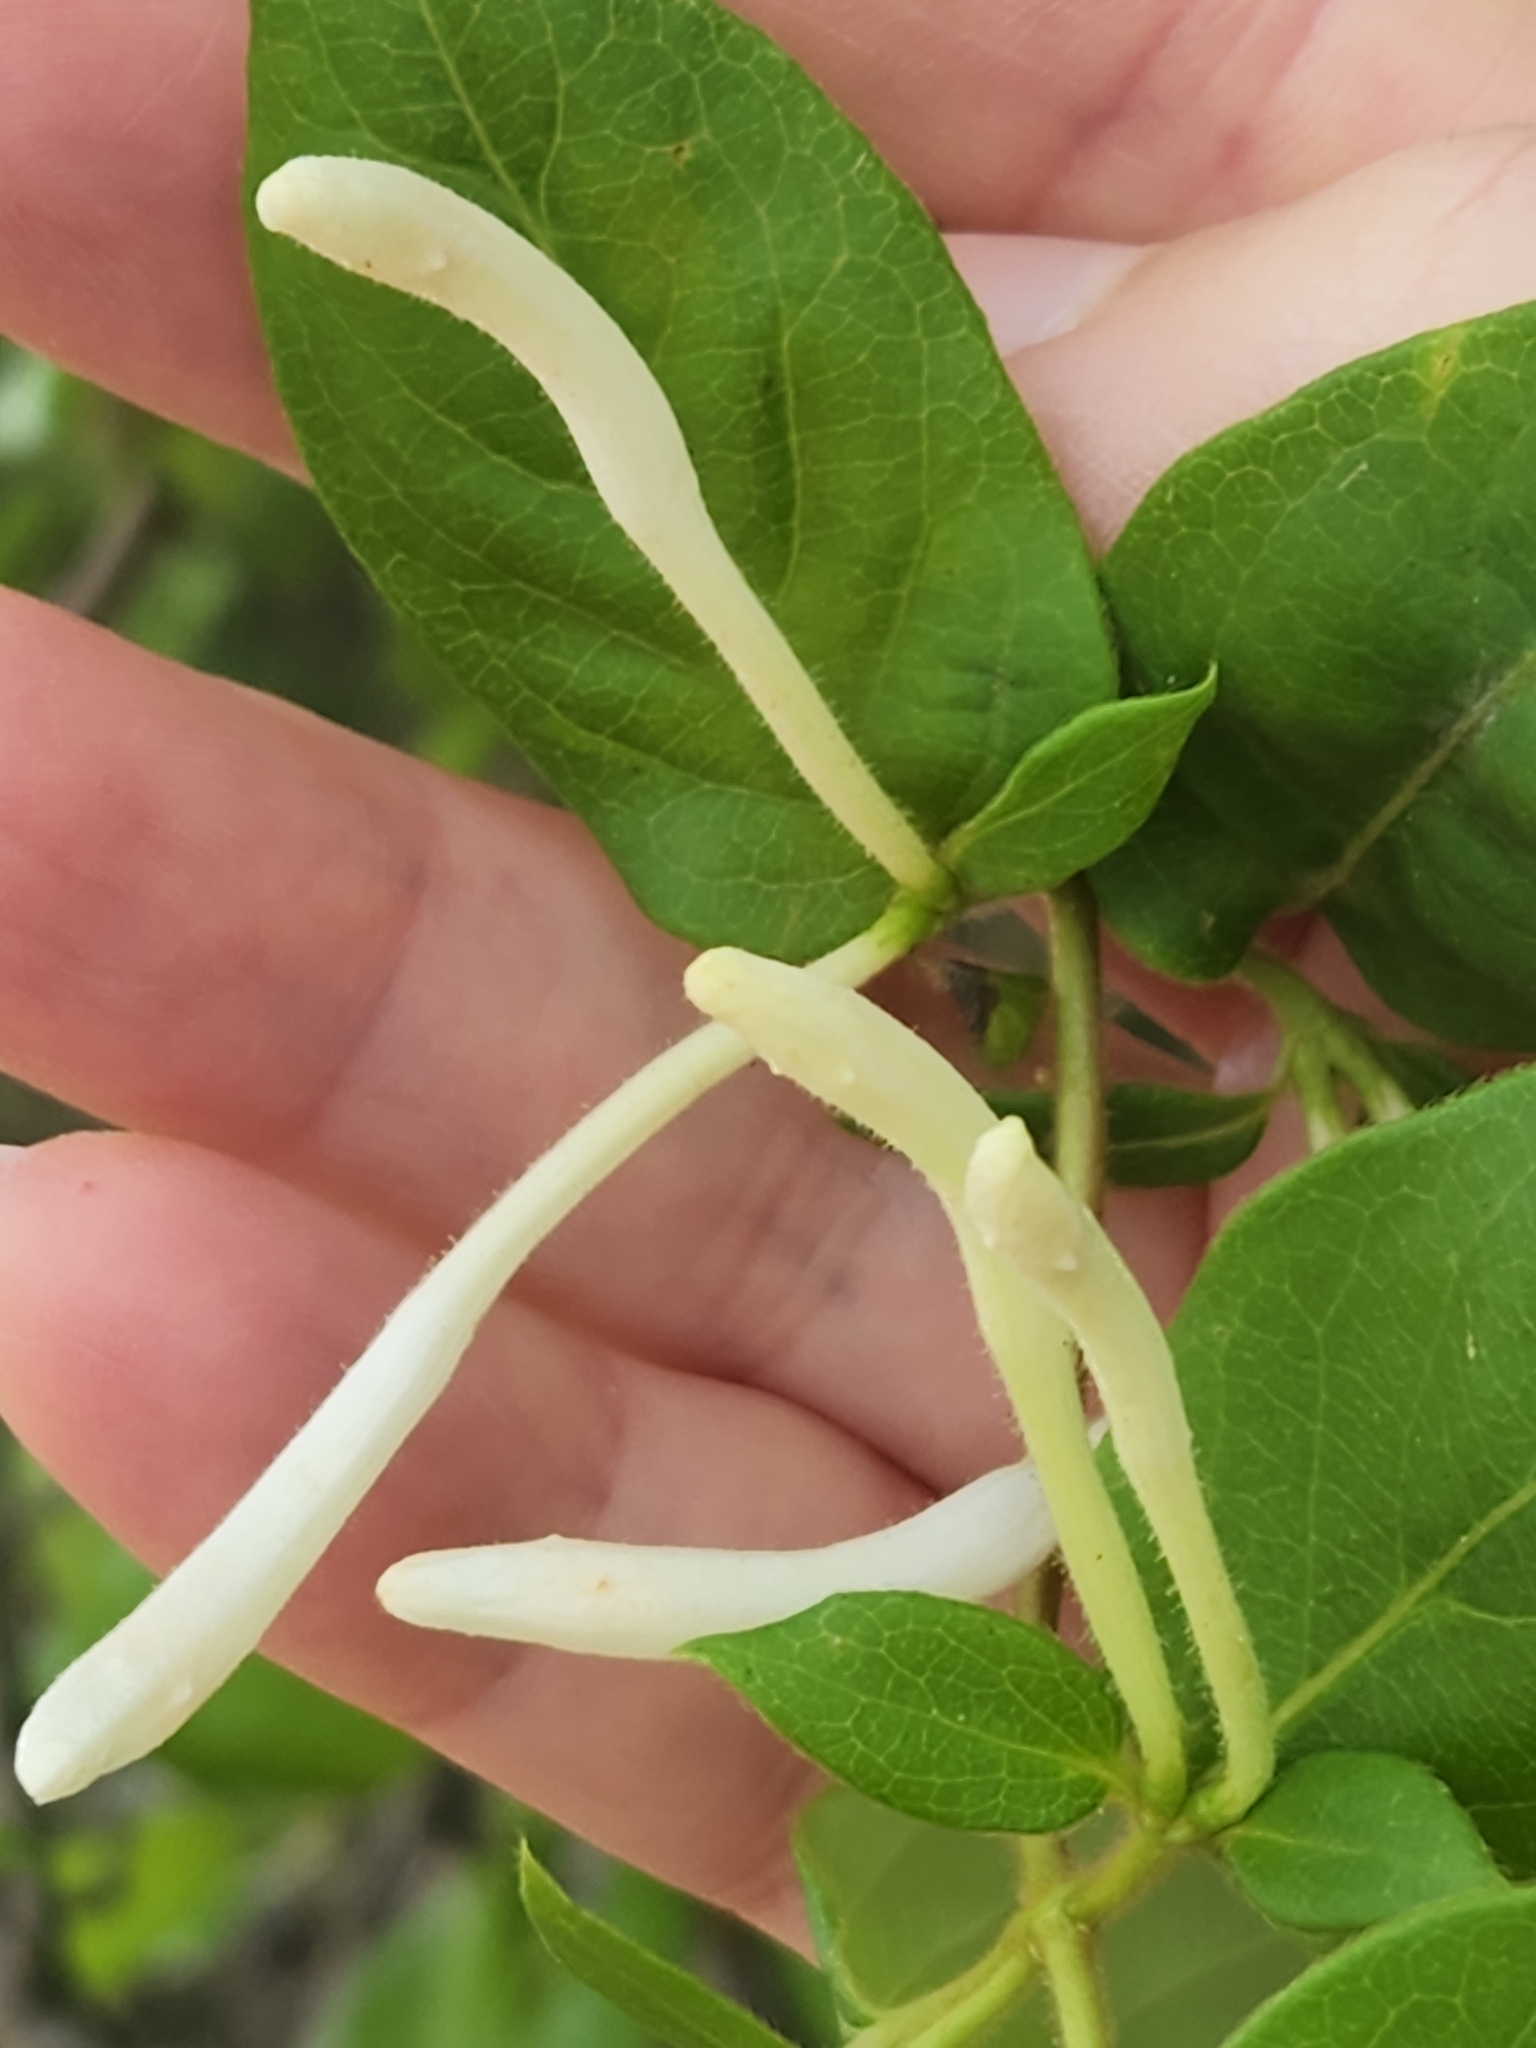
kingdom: Plantae
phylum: Tracheophyta
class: Magnoliopsida
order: Dipsacales
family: Caprifoliaceae
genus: Lonicera
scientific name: Lonicera japonica
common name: Japanese honeysuckle
